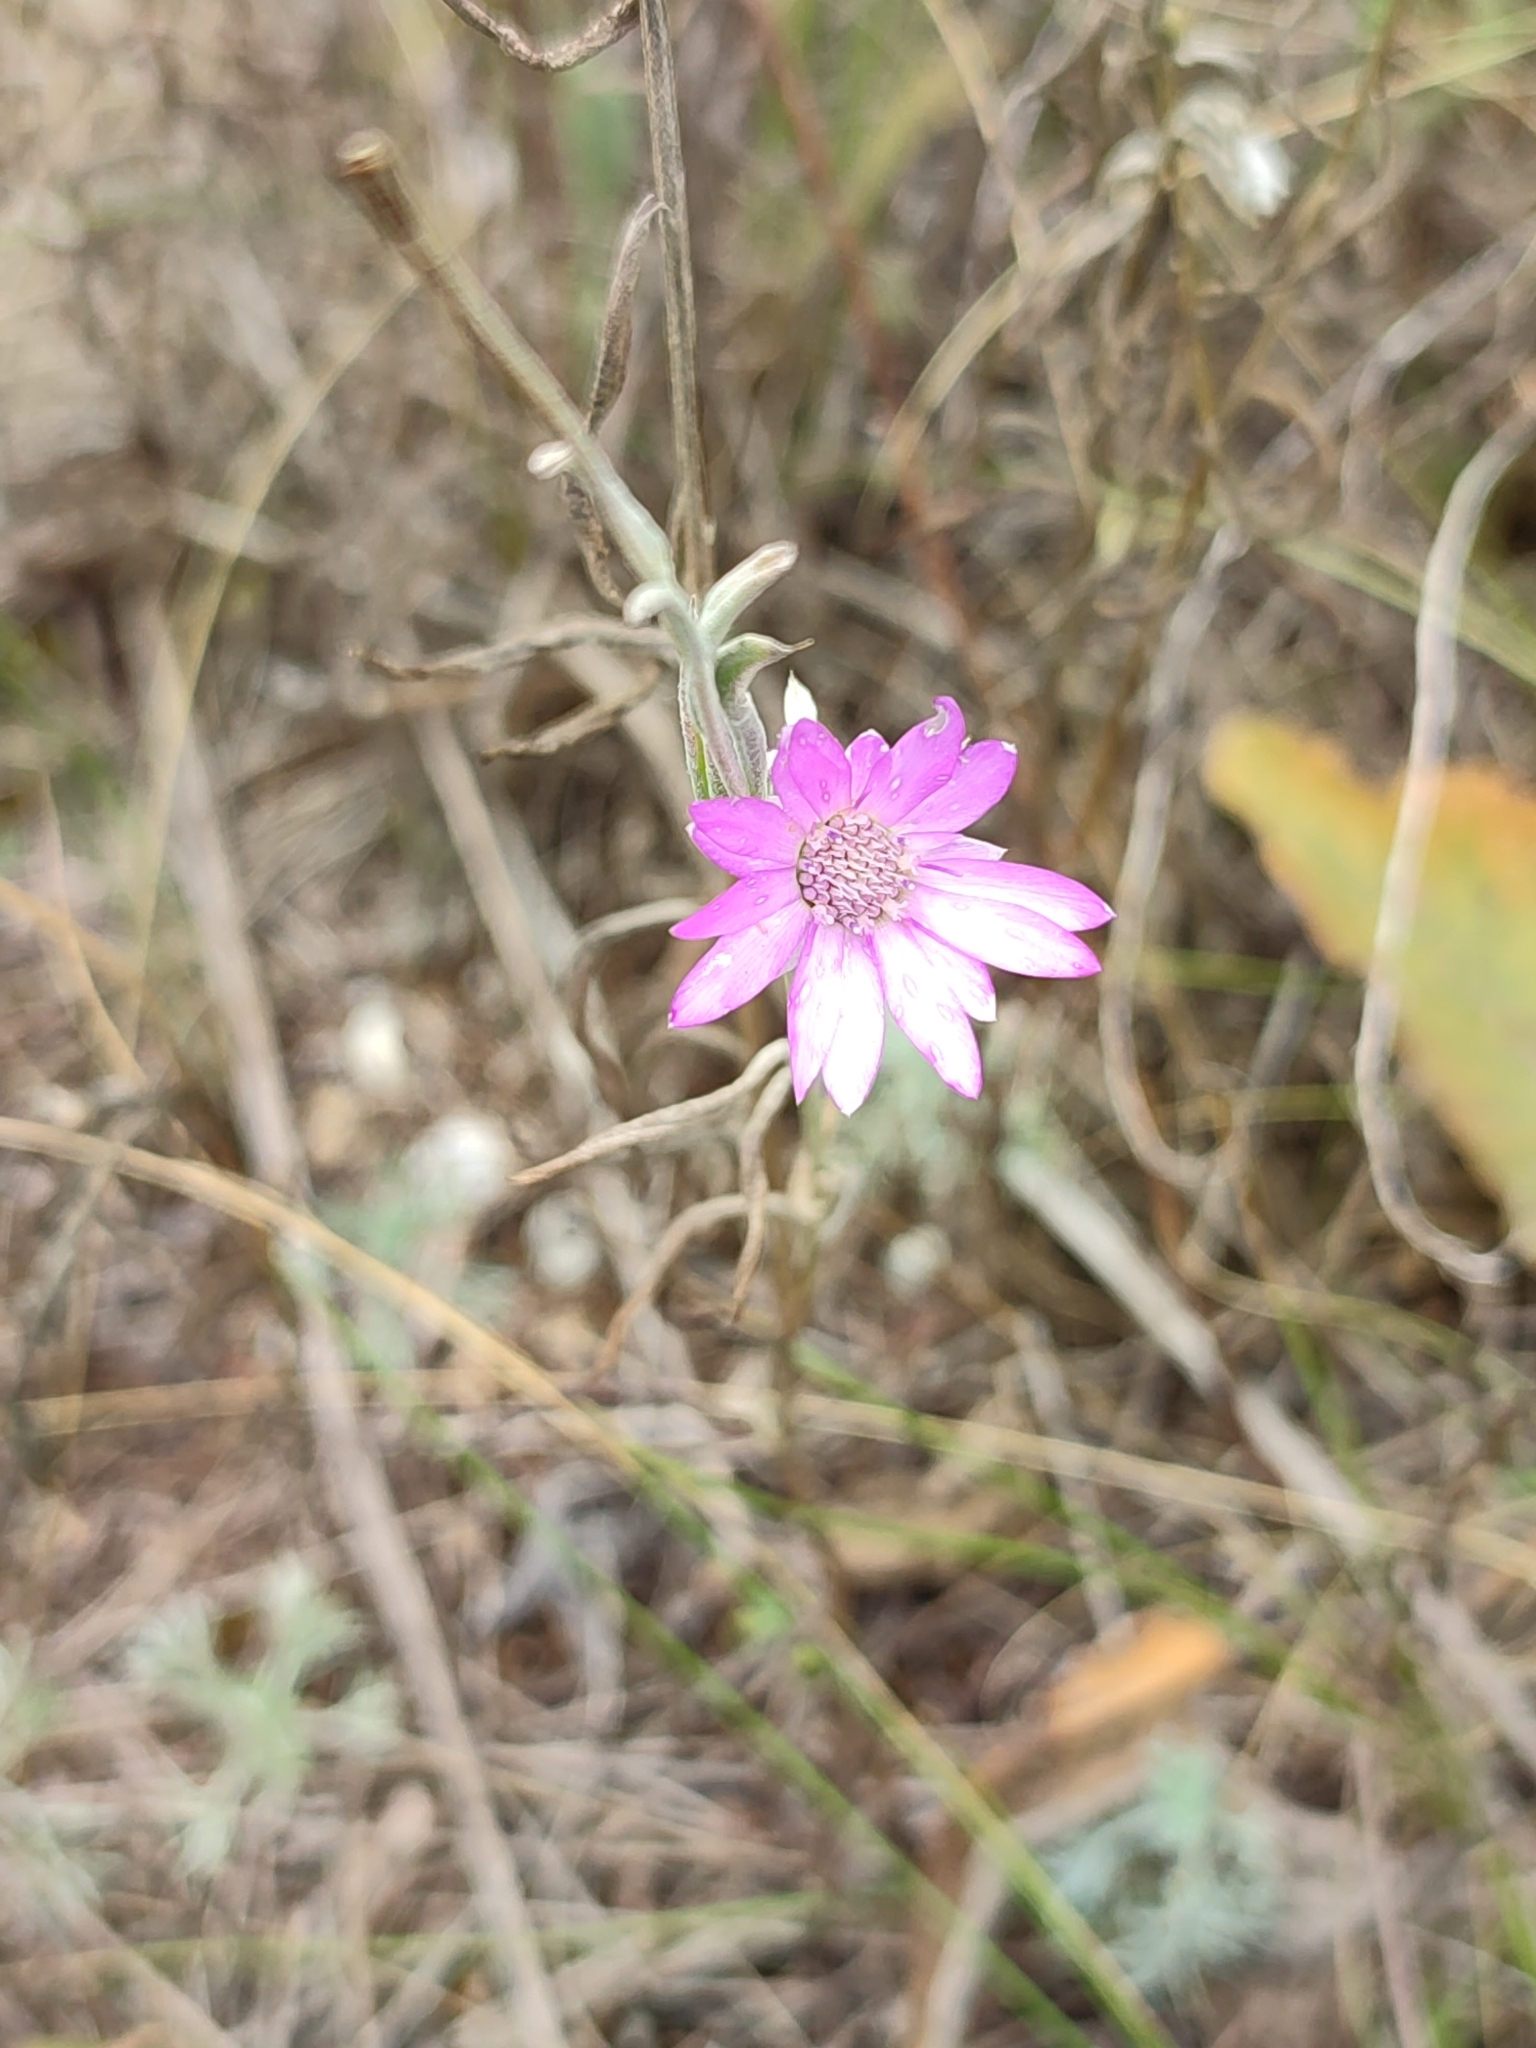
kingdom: Plantae
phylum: Tracheophyta
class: Magnoliopsida
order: Asterales
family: Asteraceae
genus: Xeranthemum
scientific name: Xeranthemum annuum
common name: Immortelle
